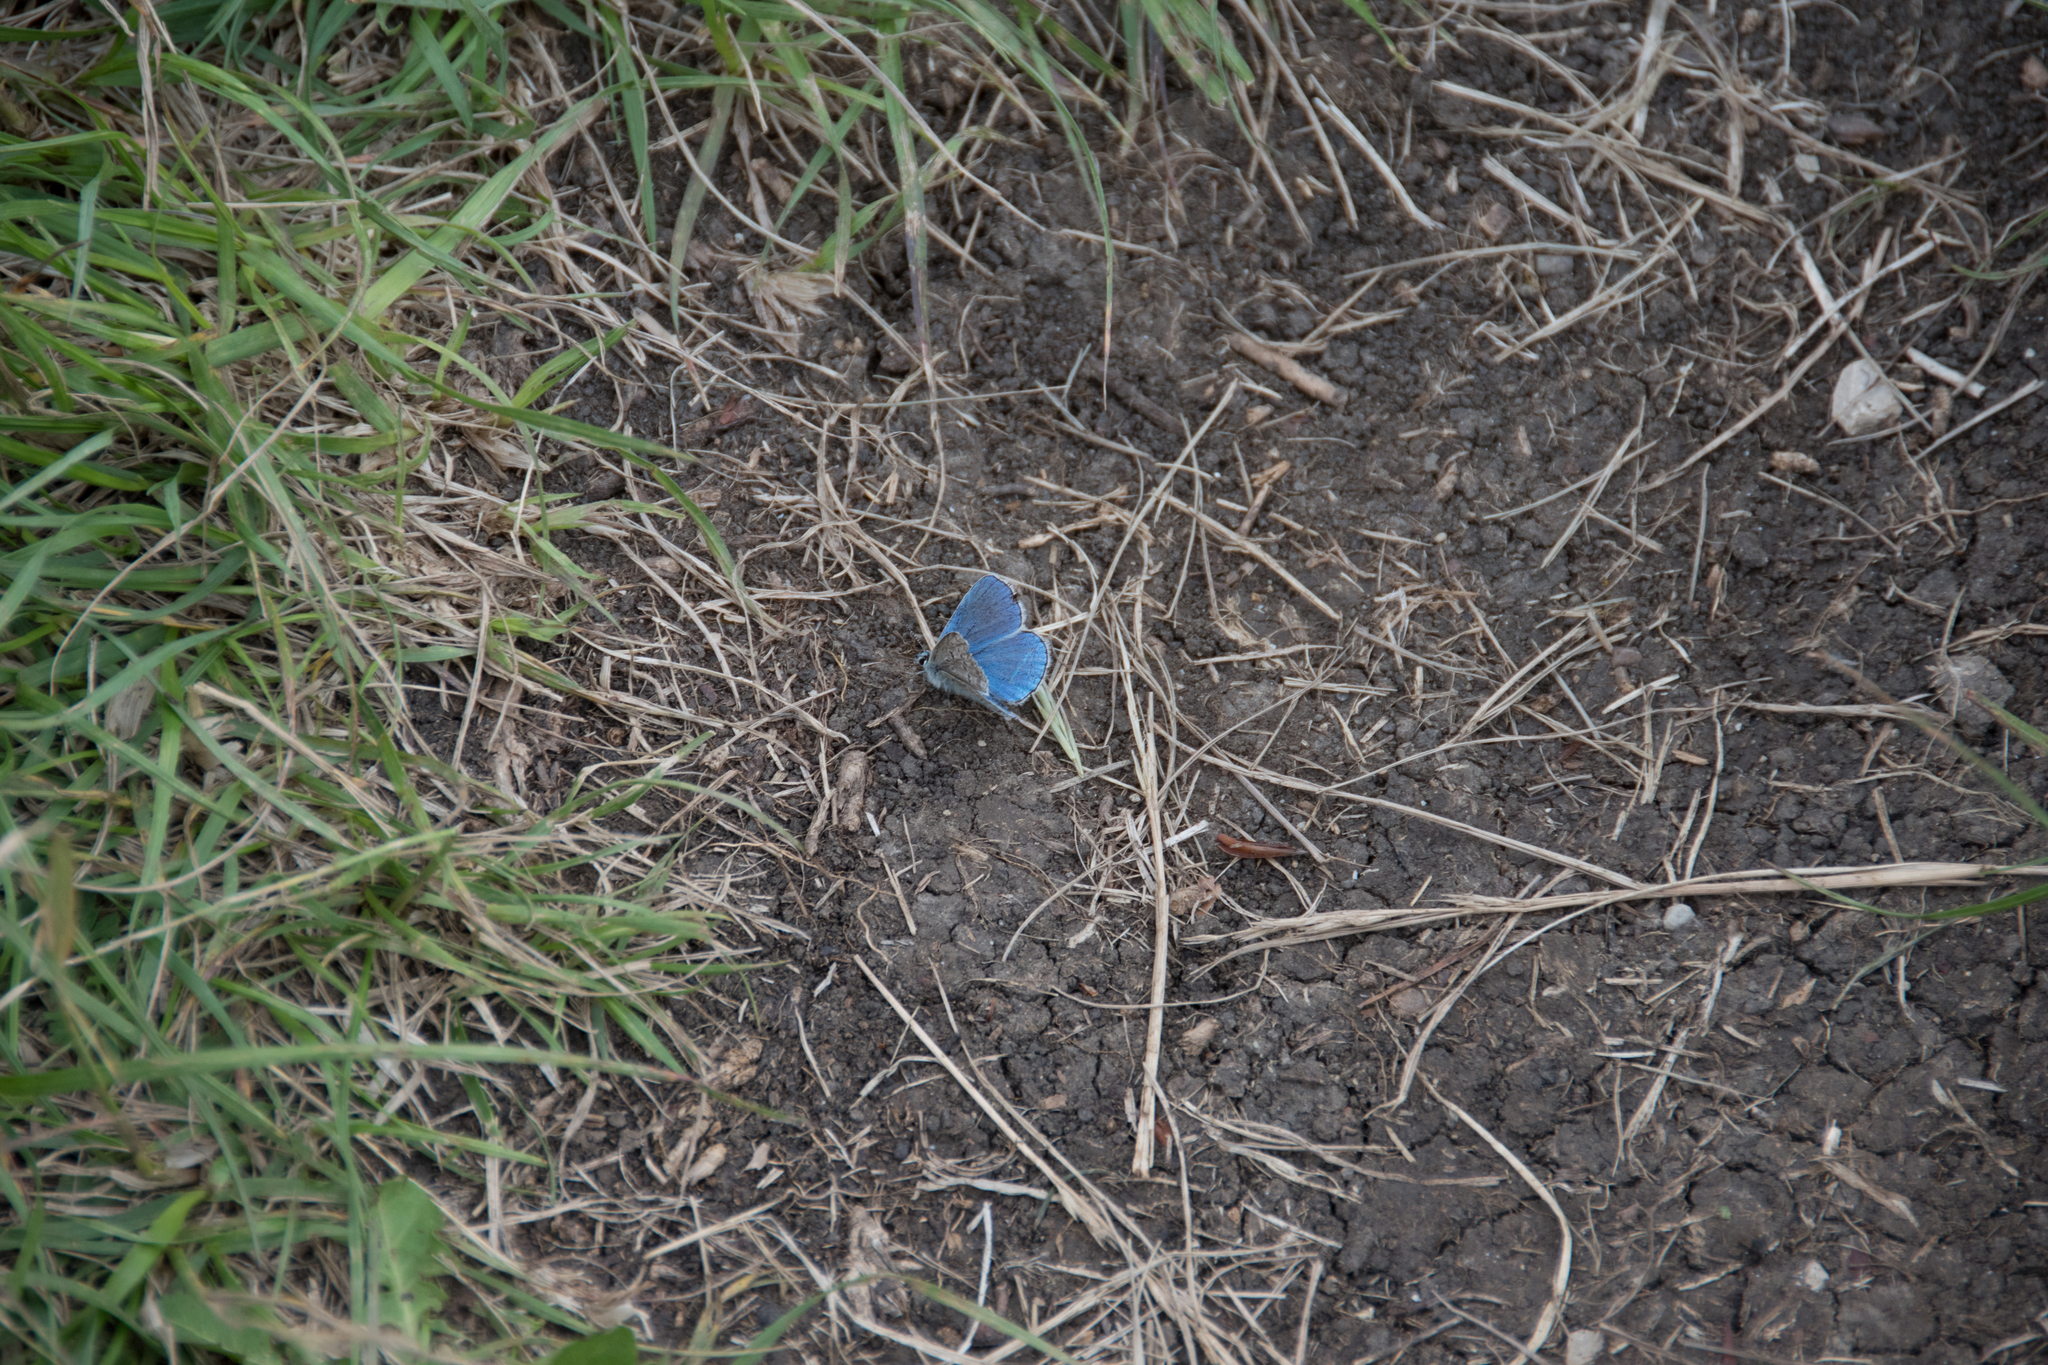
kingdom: Animalia
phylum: Arthropoda
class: Insecta
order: Lepidoptera
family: Lycaenidae
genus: Lysandra
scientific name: Lysandra bellargus
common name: Adonis blue
